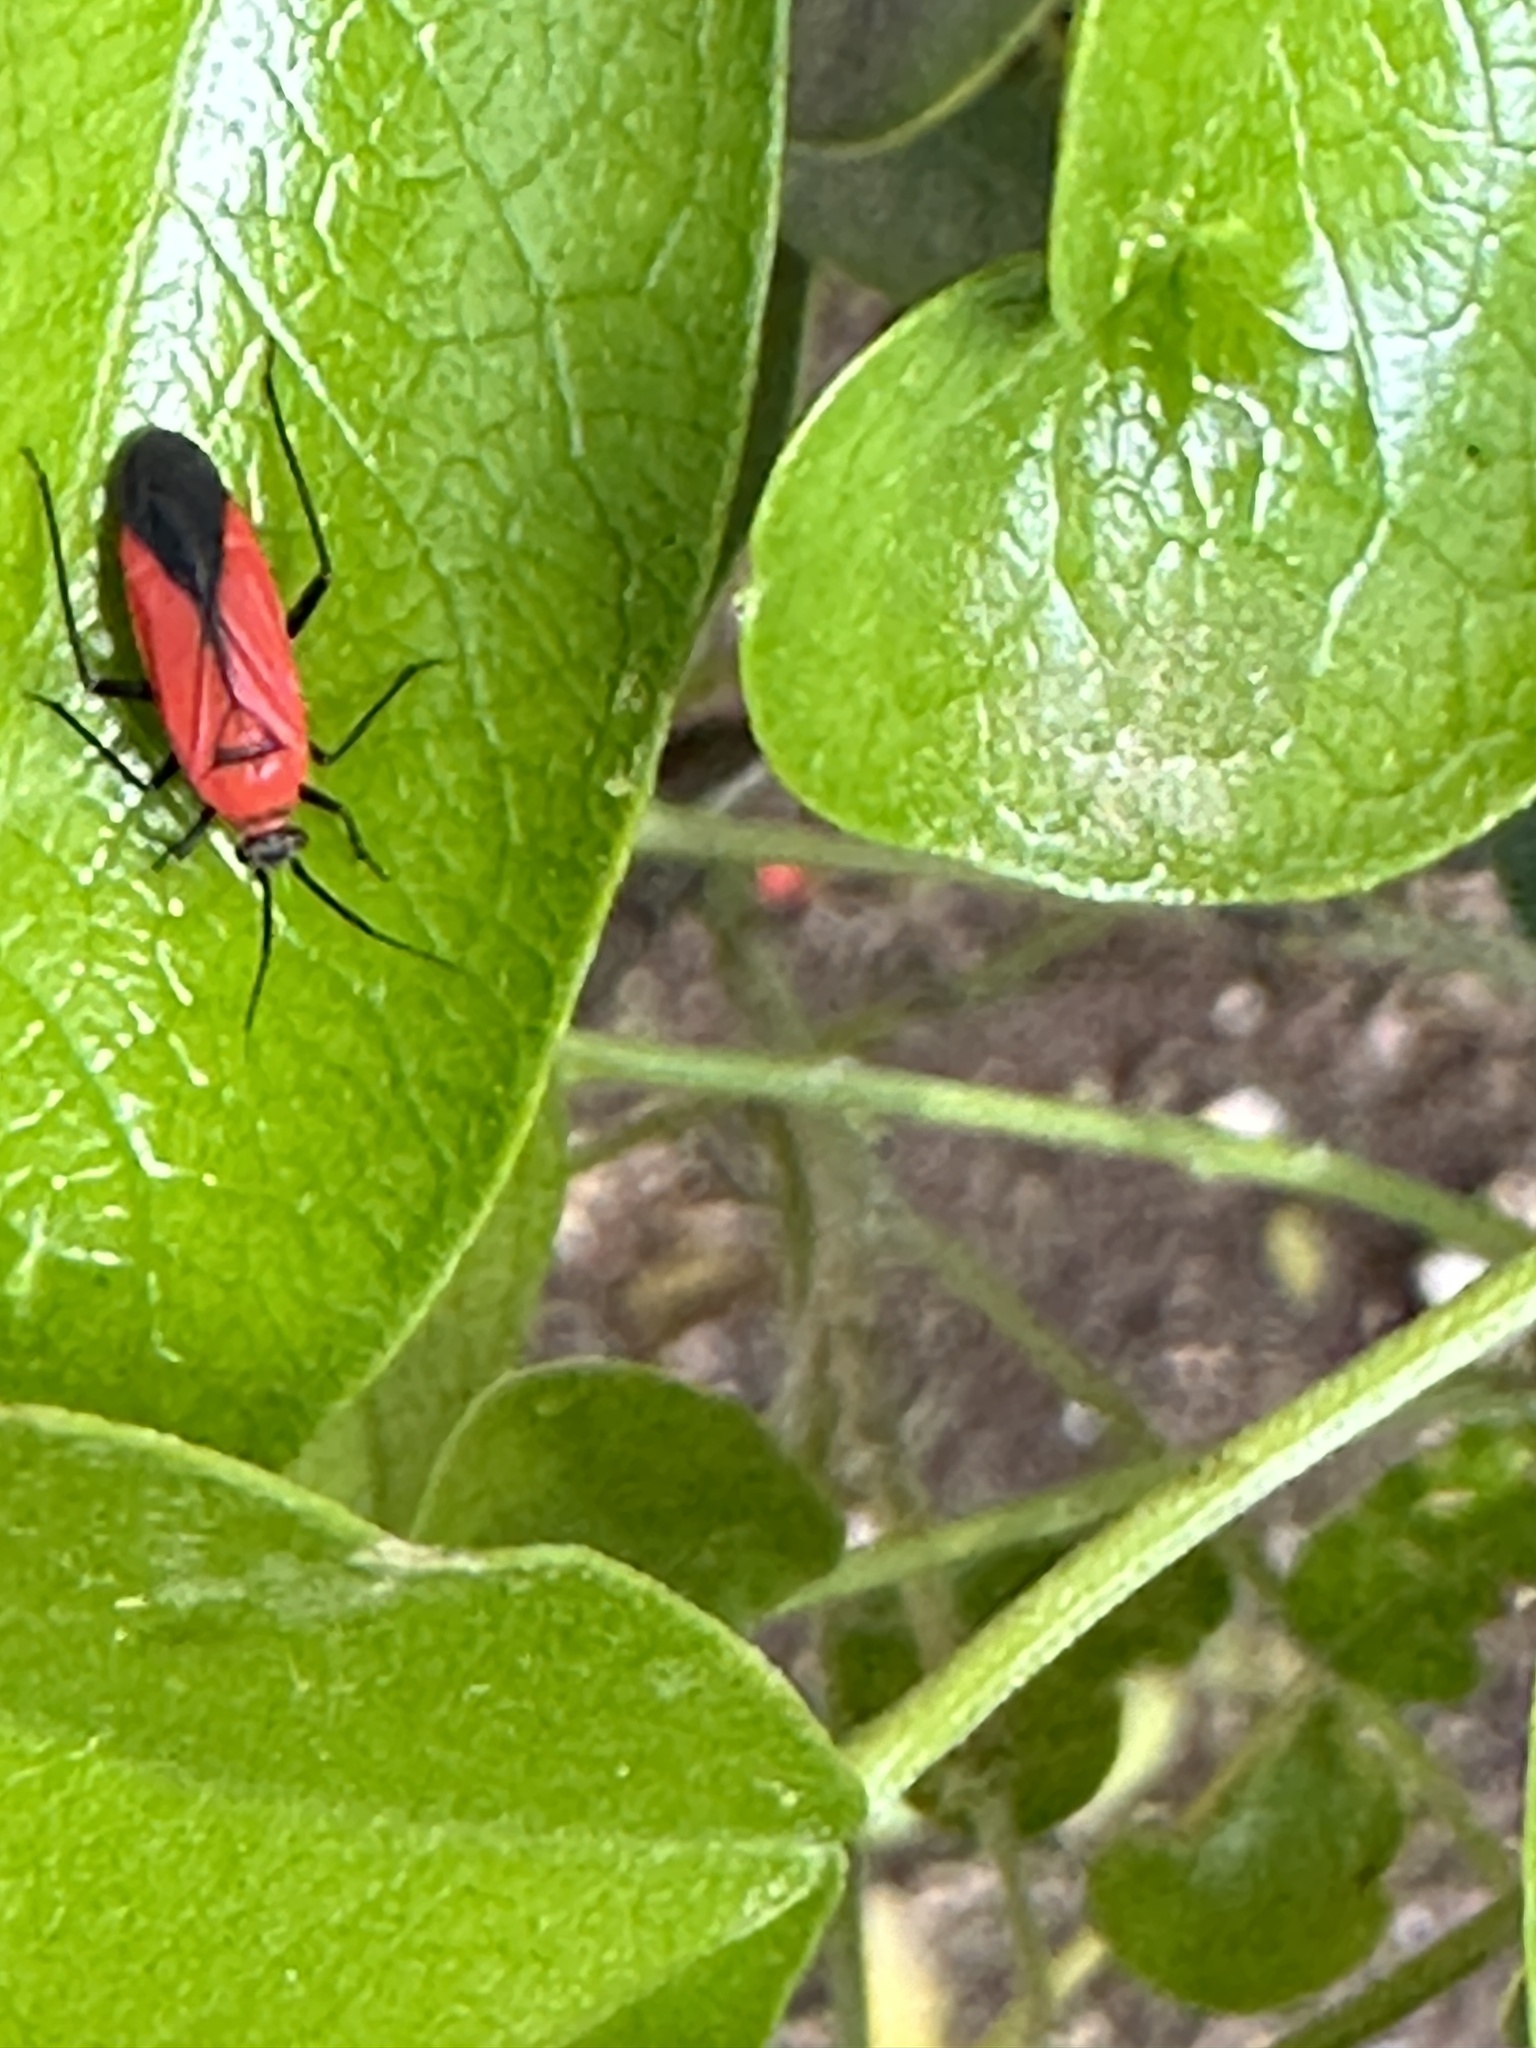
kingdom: Animalia
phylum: Arthropoda
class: Insecta
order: Hemiptera
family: Miridae
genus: Lopidea
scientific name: Lopidea major
